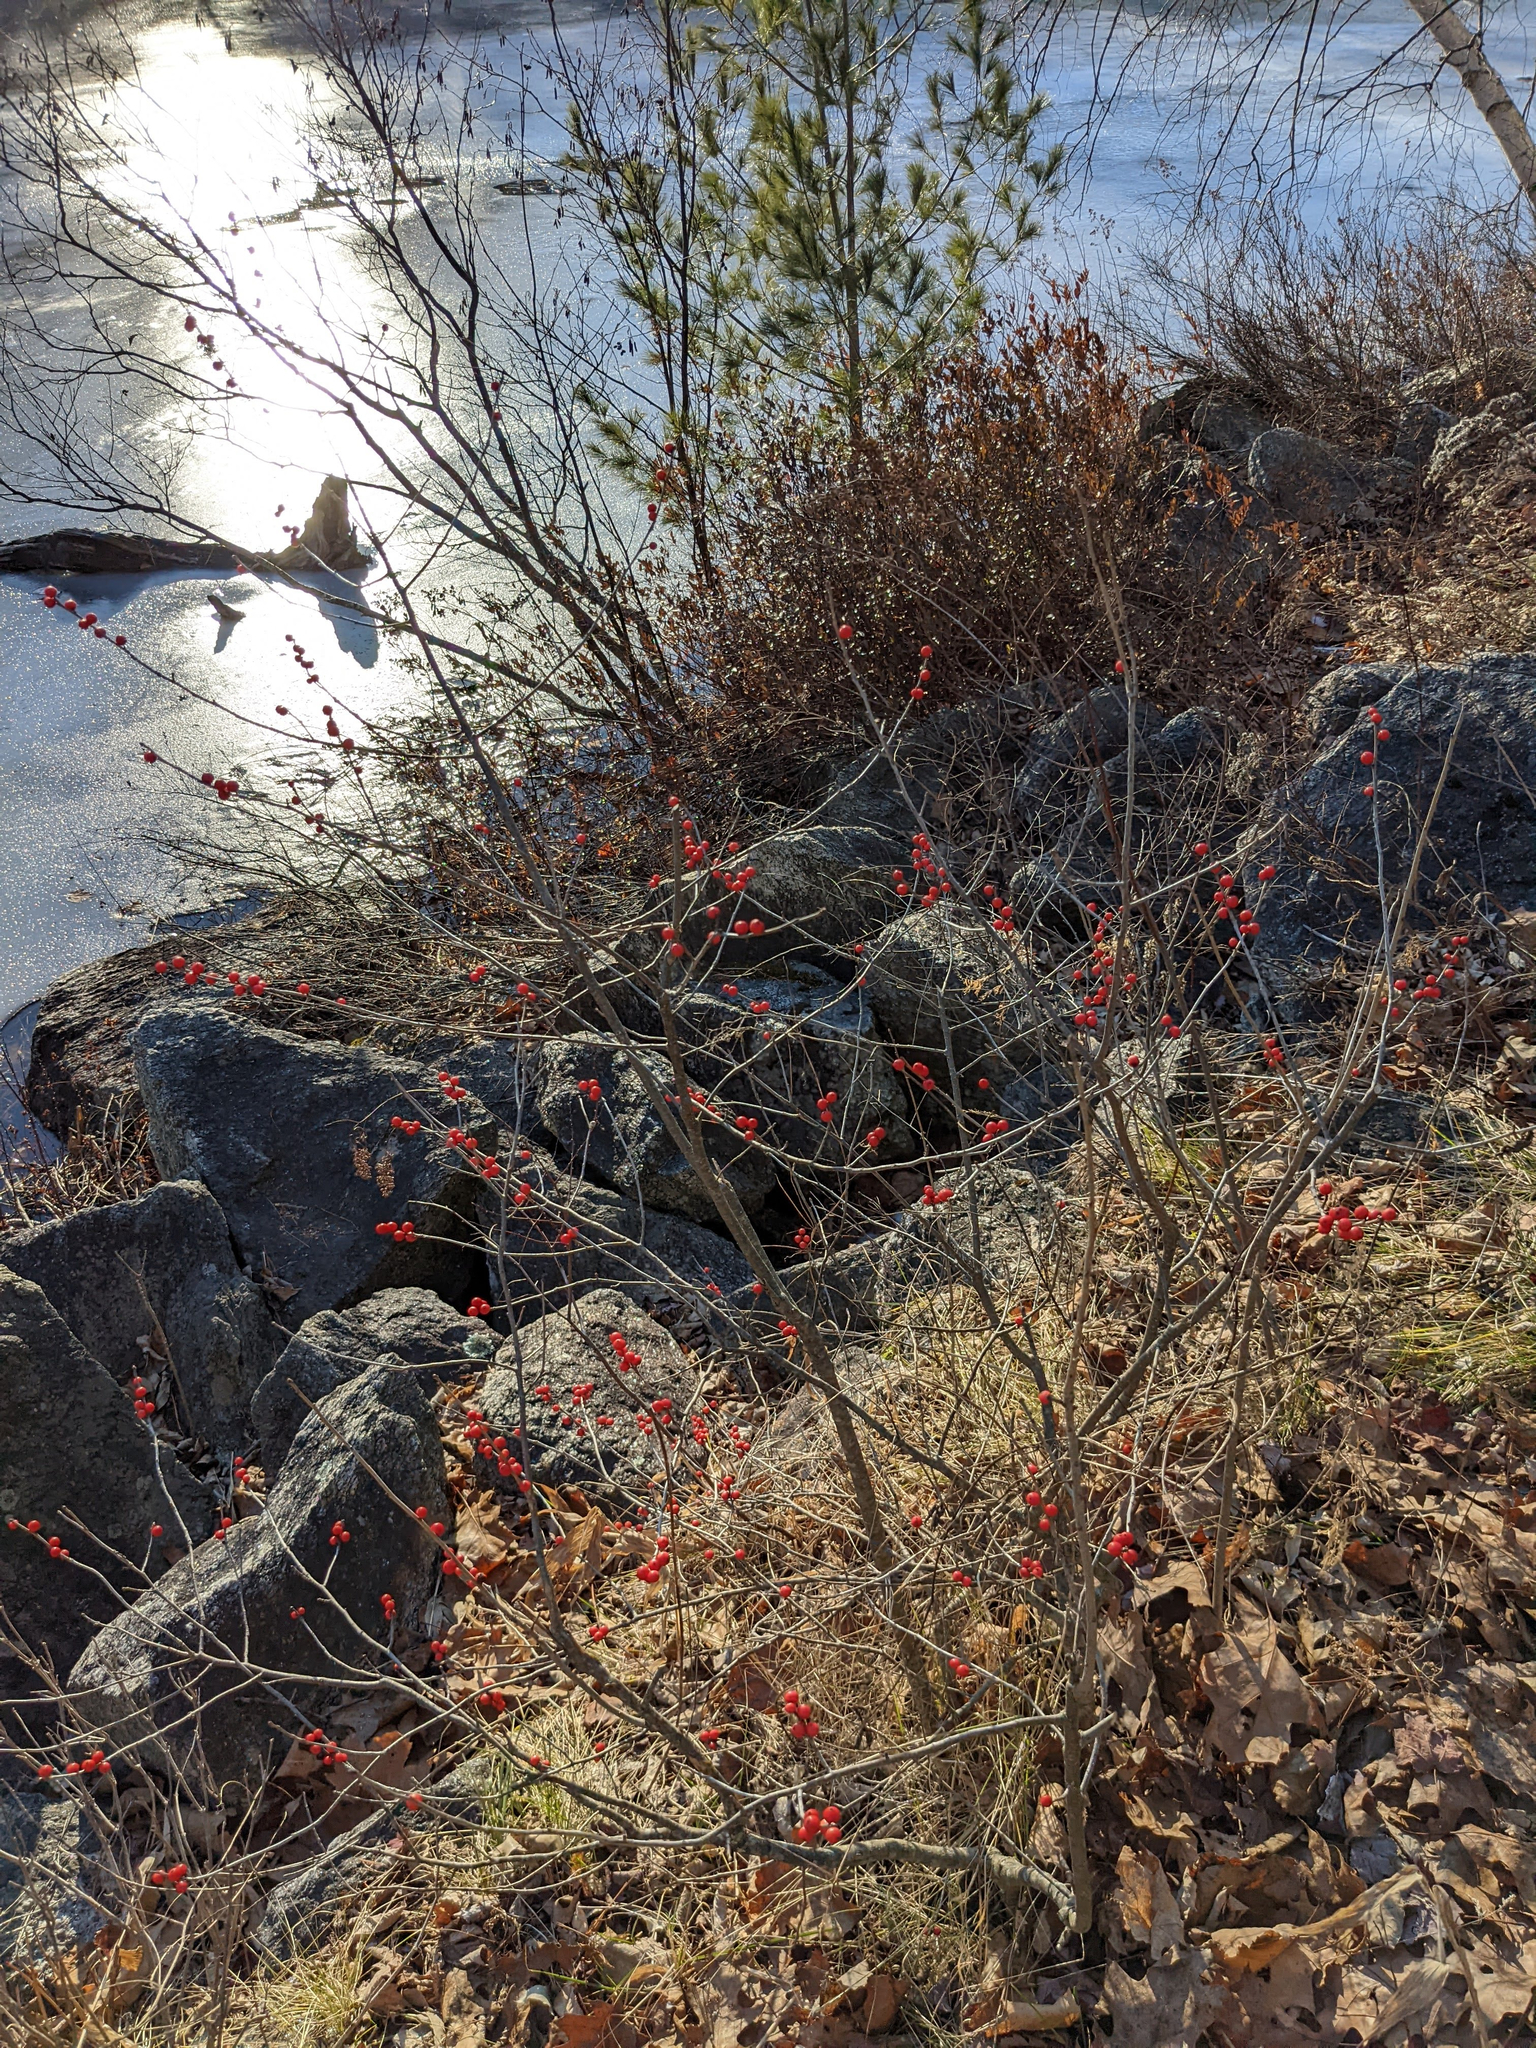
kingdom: Plantae
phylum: Tracheophyta
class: Magnoliopsida
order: Aquifoliales
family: Aquifoliaceae
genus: Ilex
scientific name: Ilex verticillata
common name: Virginia winterberry
